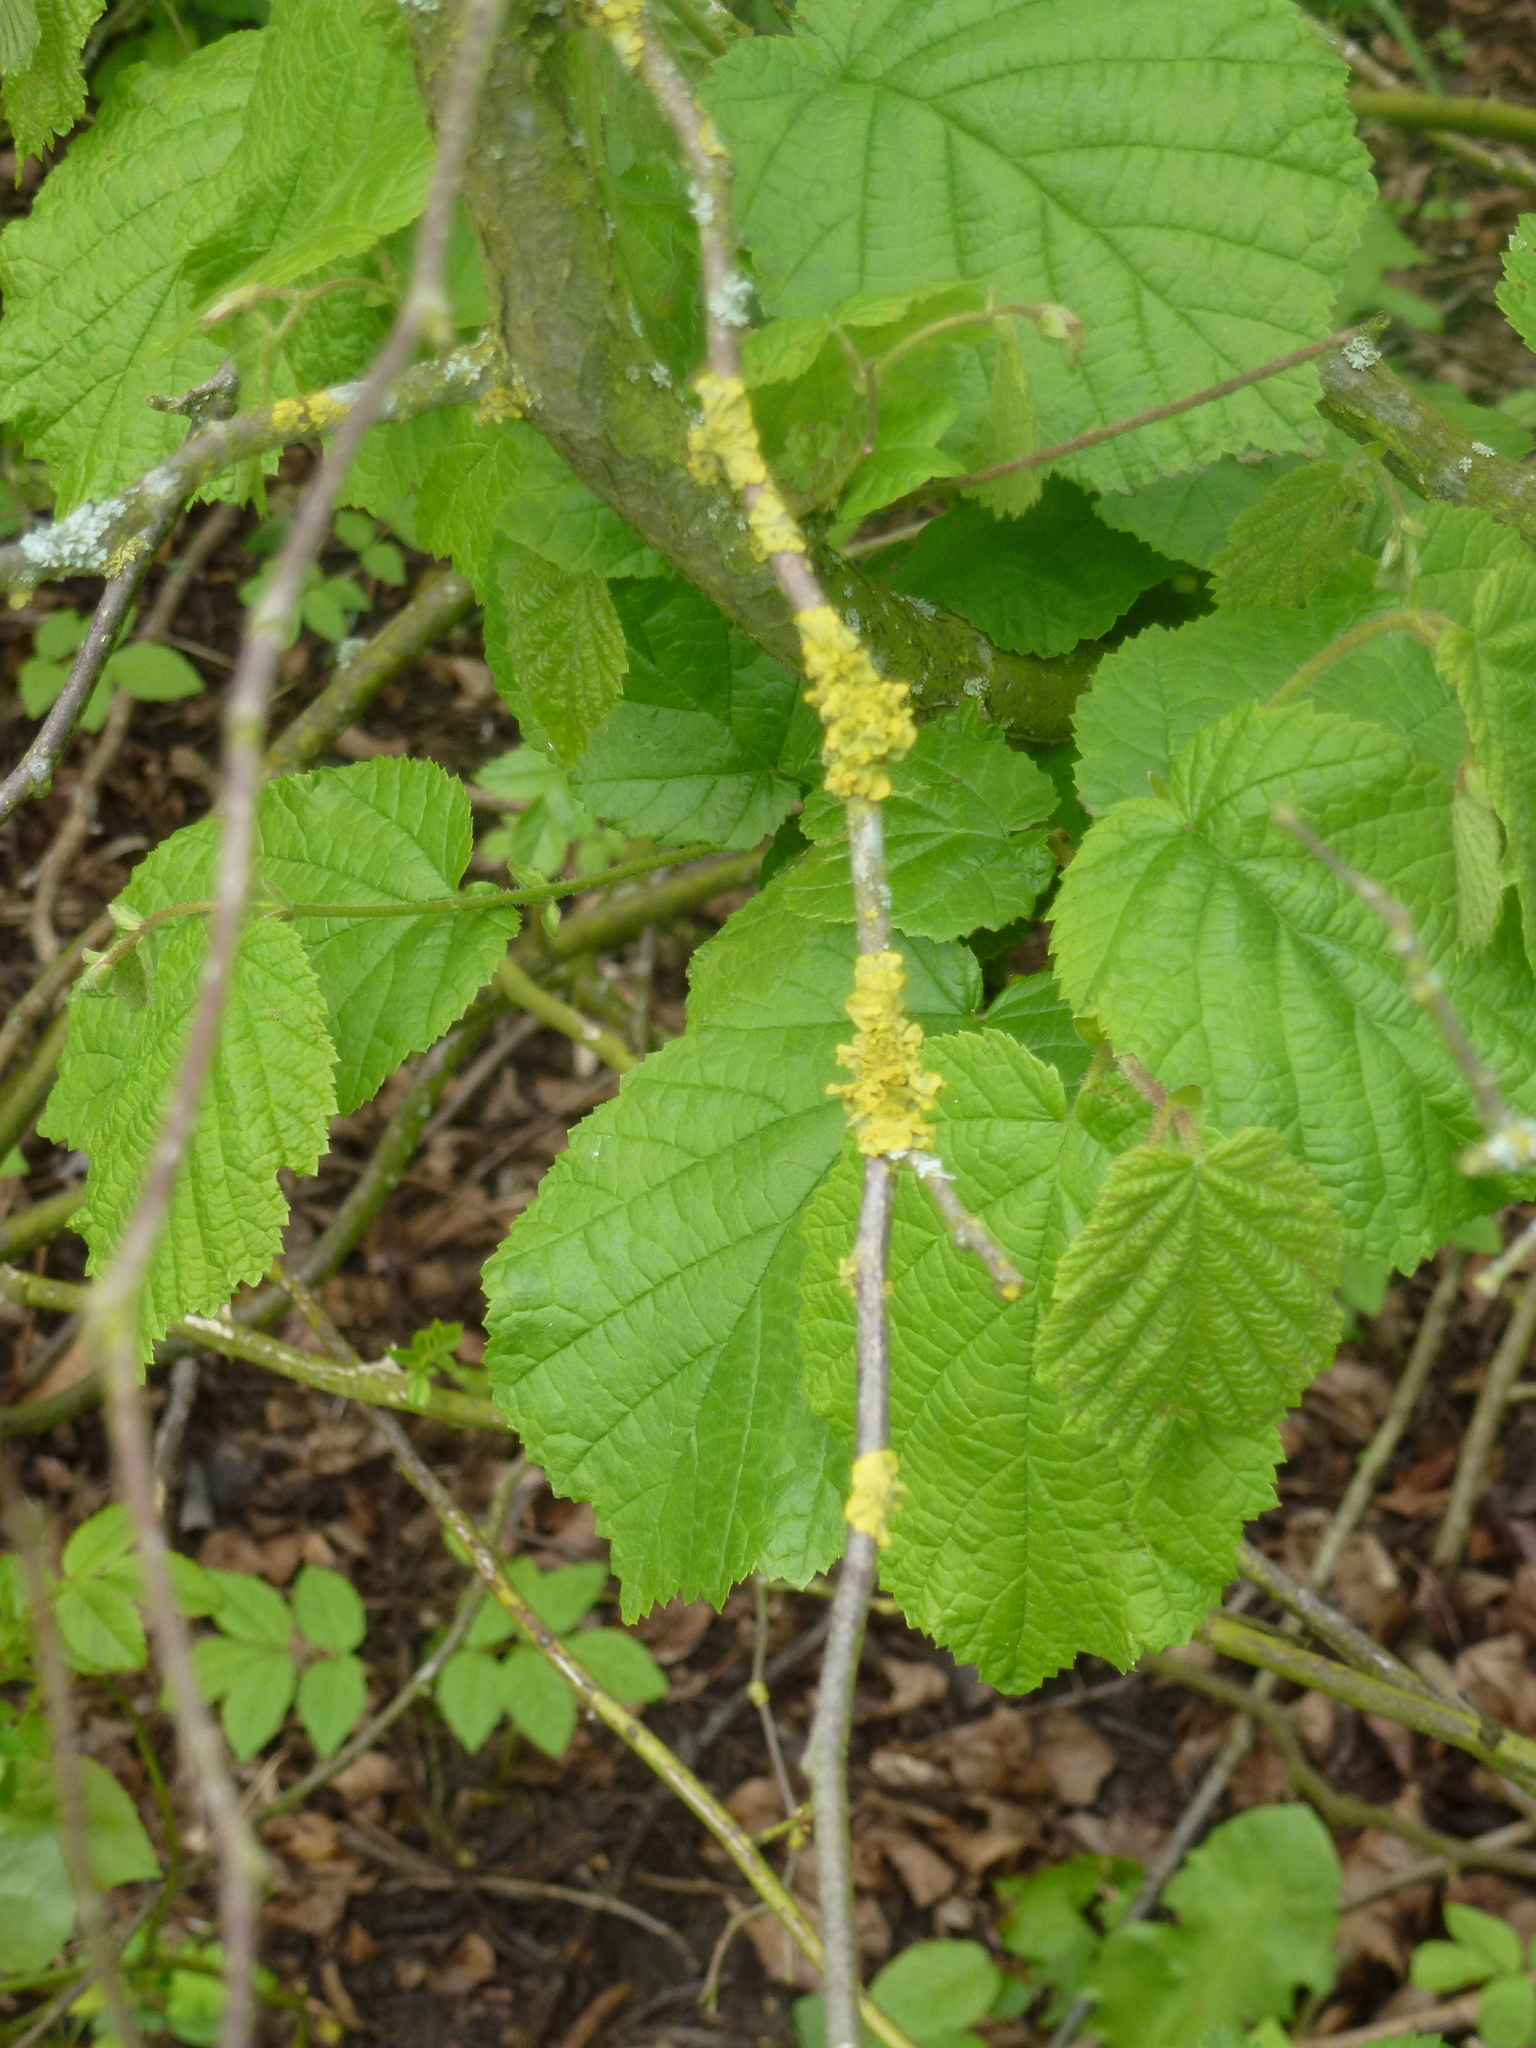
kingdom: Fungi
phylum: Ascomycota
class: Lecanoromycetes
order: Teloschistales
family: Teloschistaceae
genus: Xanthoria
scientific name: Xanthoria parietina
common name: Common orange lichen
